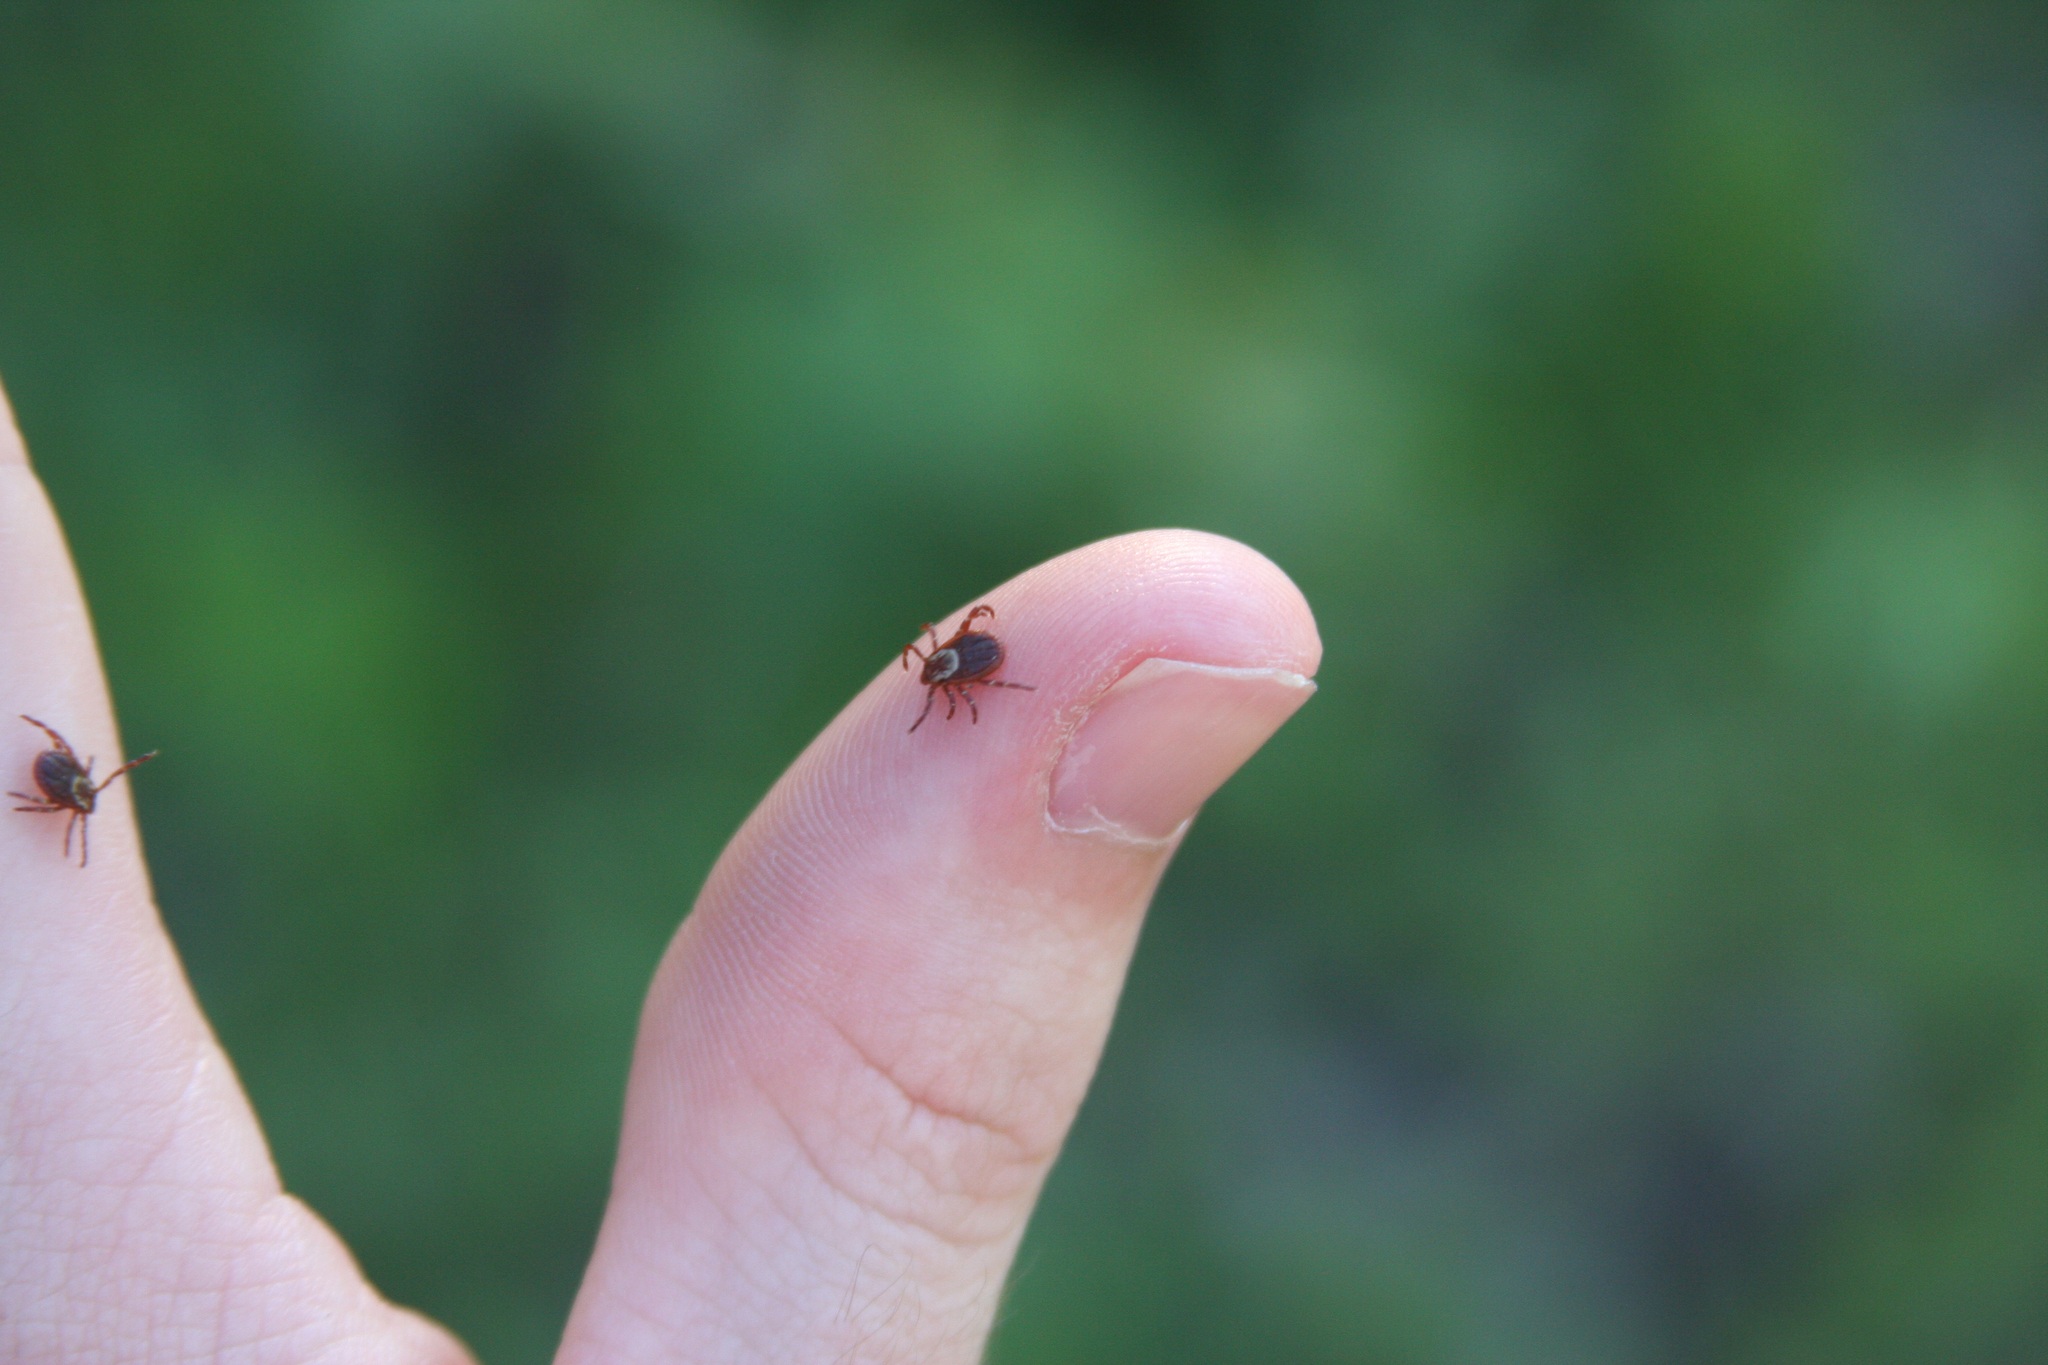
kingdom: Animalia
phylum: Arthropoda
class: Arachnida
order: Ixodida
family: Ixodidae
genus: Dermacentor
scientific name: Dermacentor variabilis
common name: American dog tick
